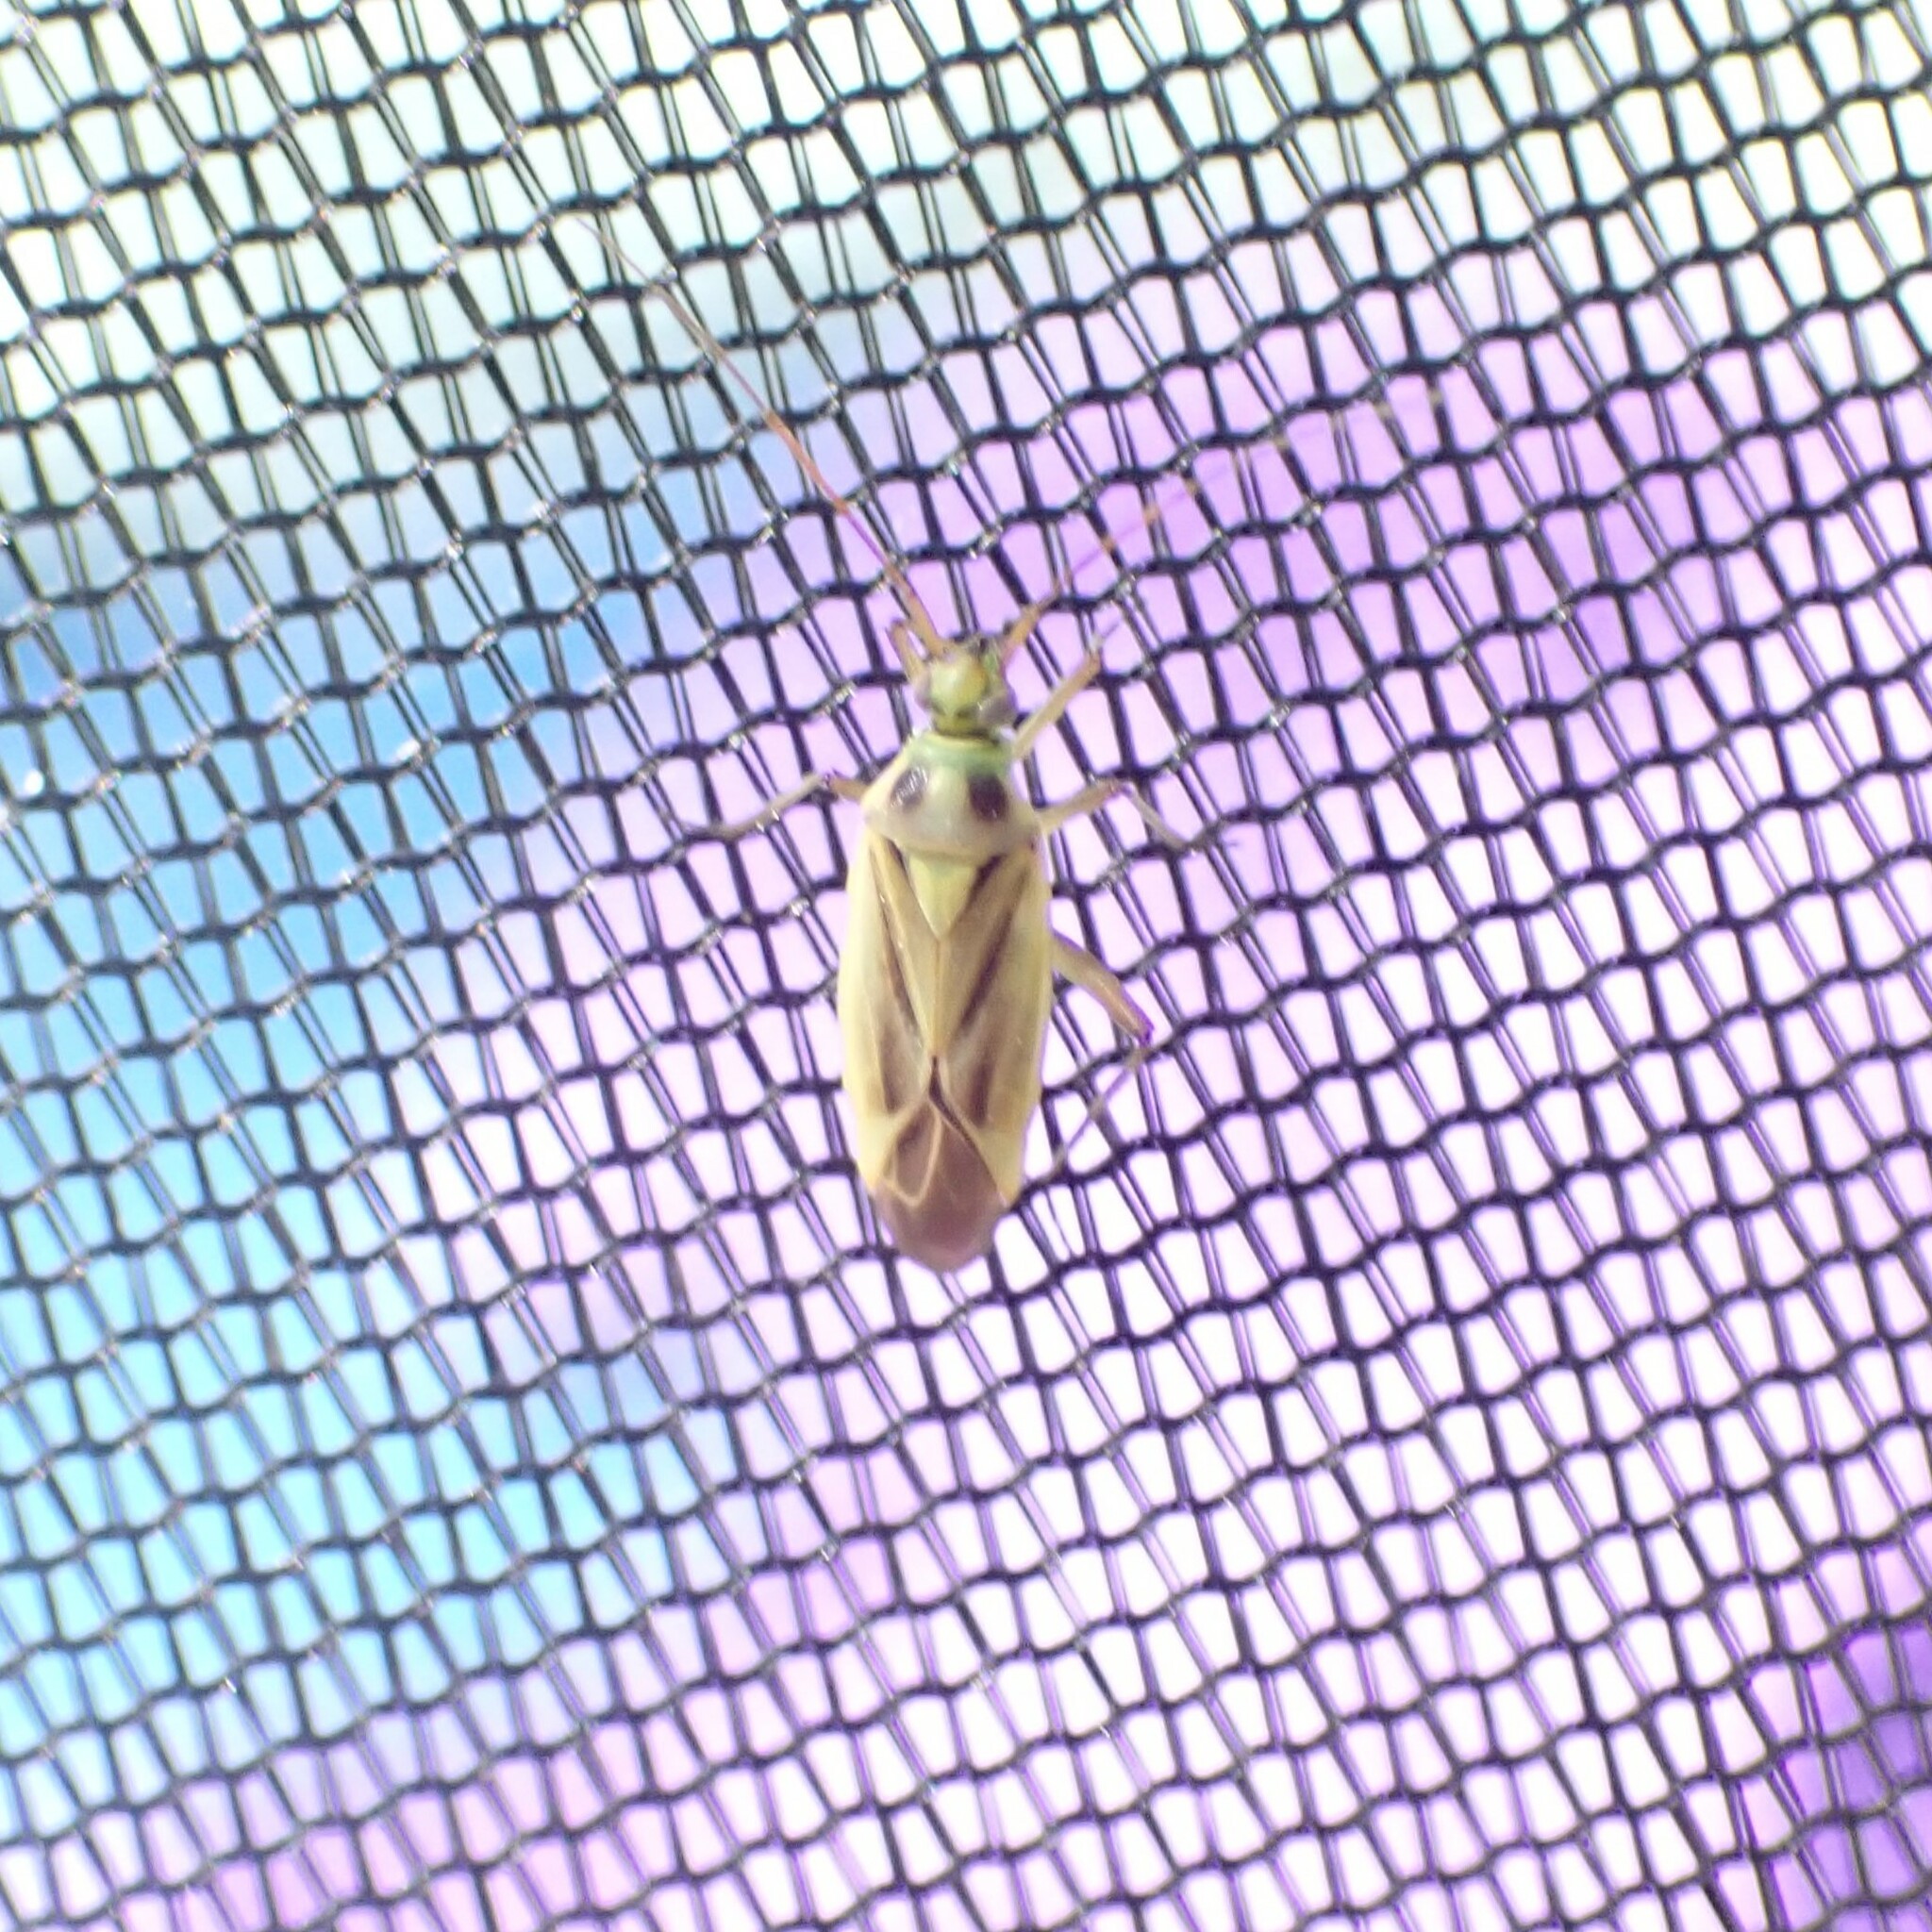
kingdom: Animalia
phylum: Arthropoda
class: Insecta
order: Hemiptera
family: Miridae
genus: Stenotus
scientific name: Stenotus binotatus
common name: Plant bug
